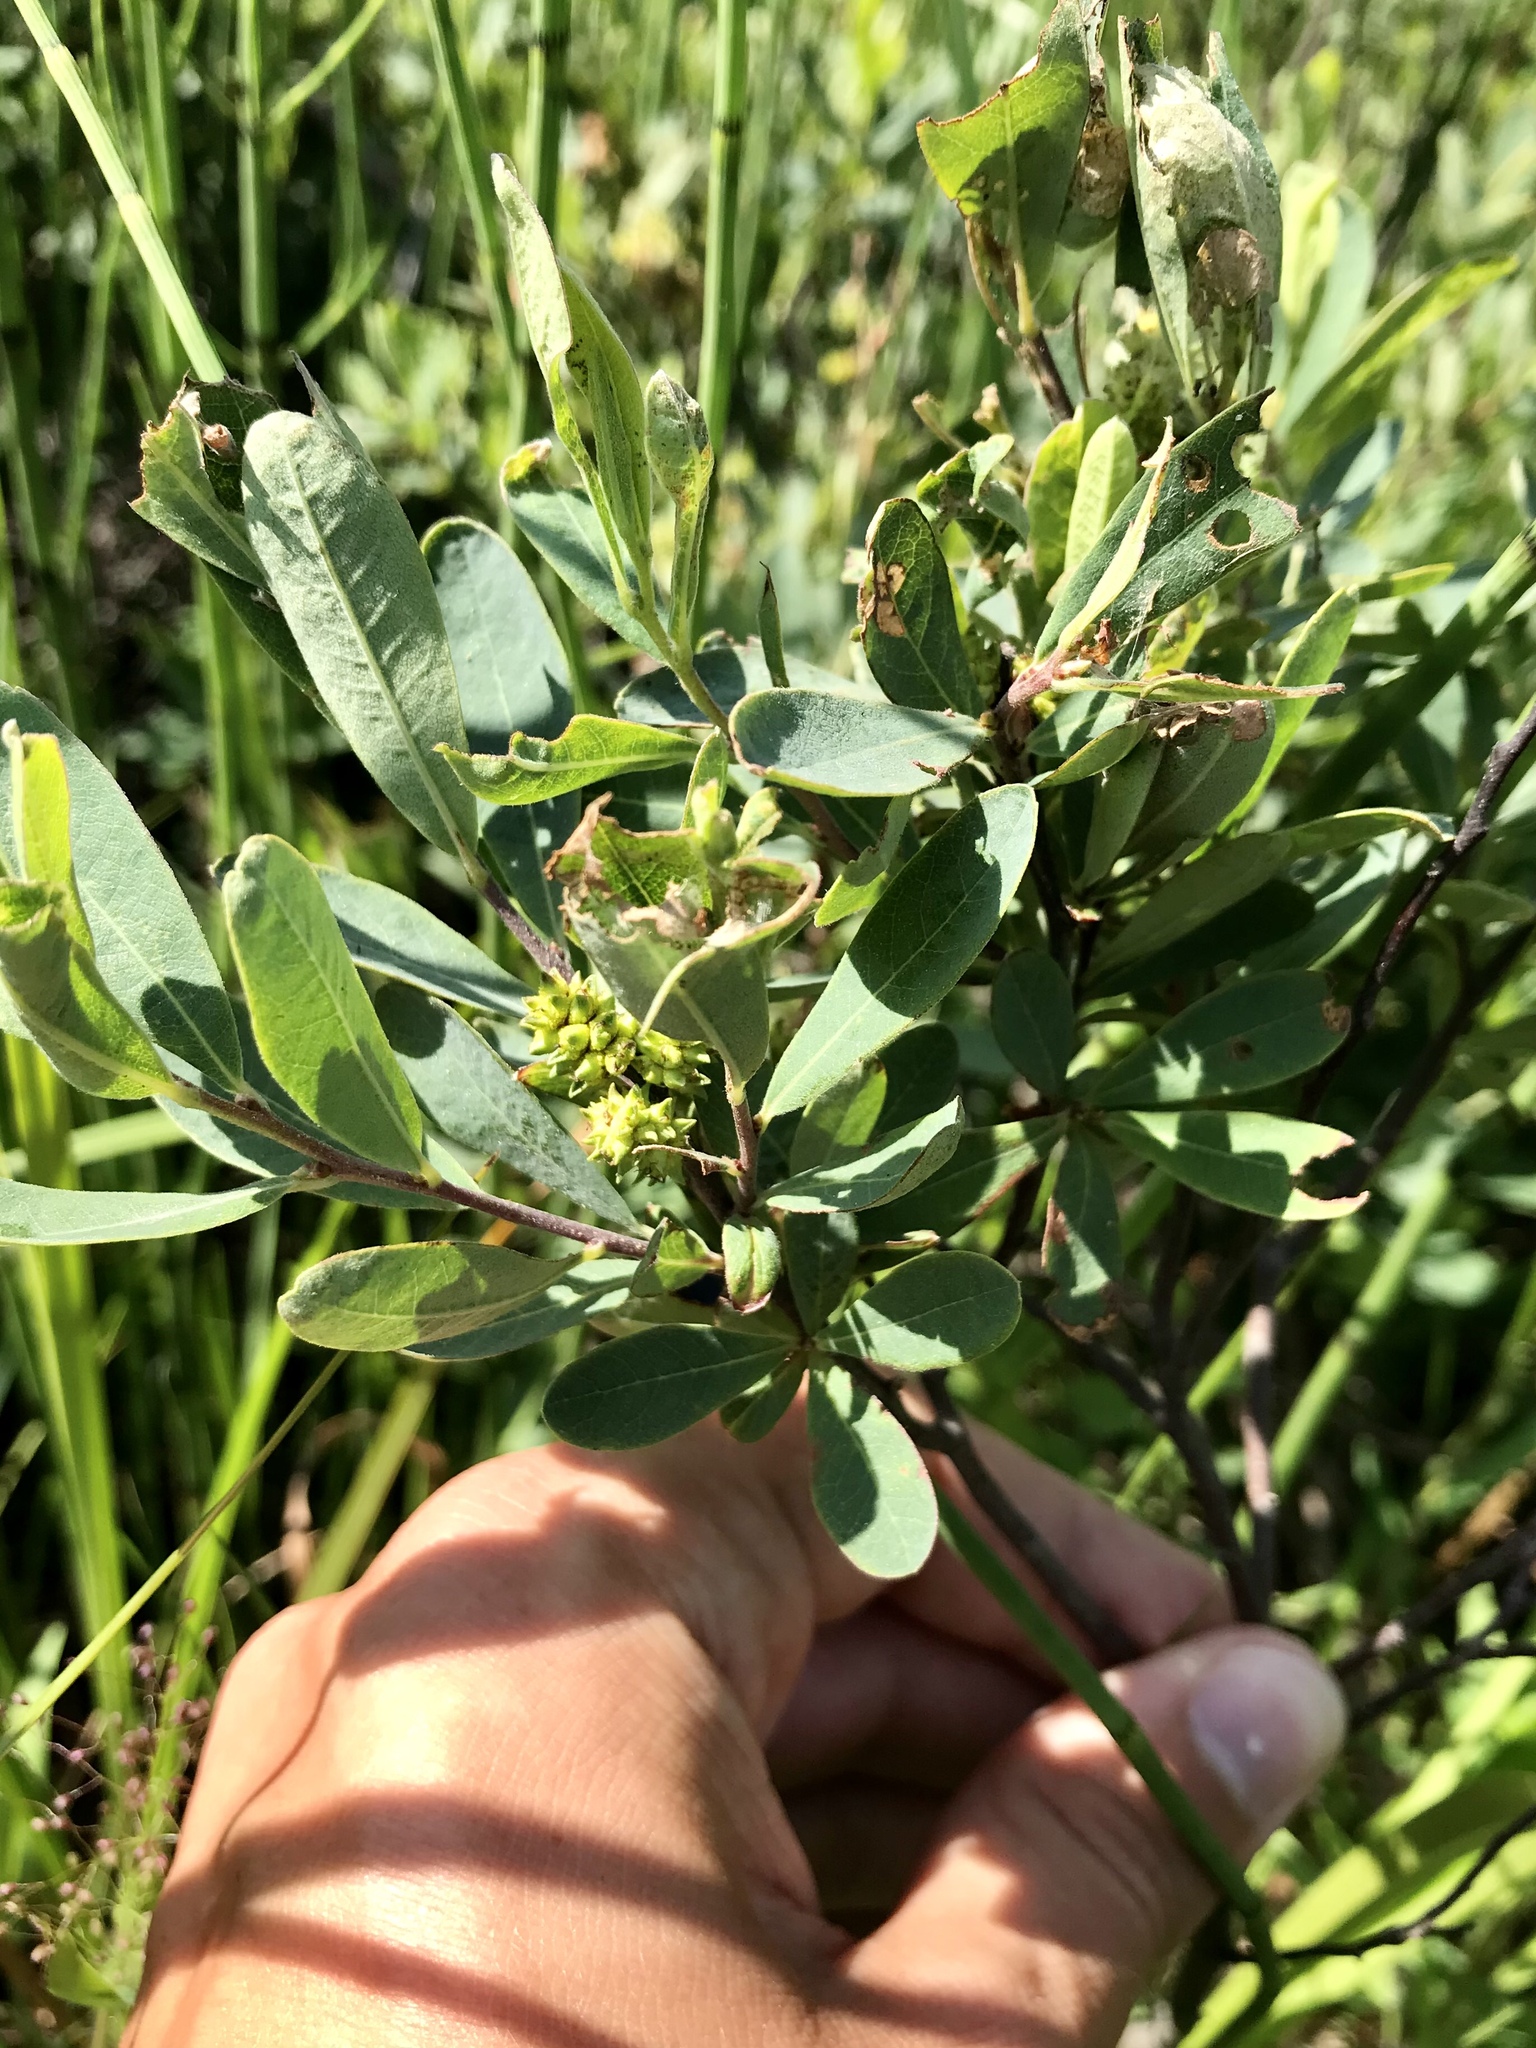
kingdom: Plantae
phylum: Tracheophyta
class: Magnoliopsida
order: Fagales
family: Myricaceae
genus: Myrica
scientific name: Myrica gale
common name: Sweet gale
